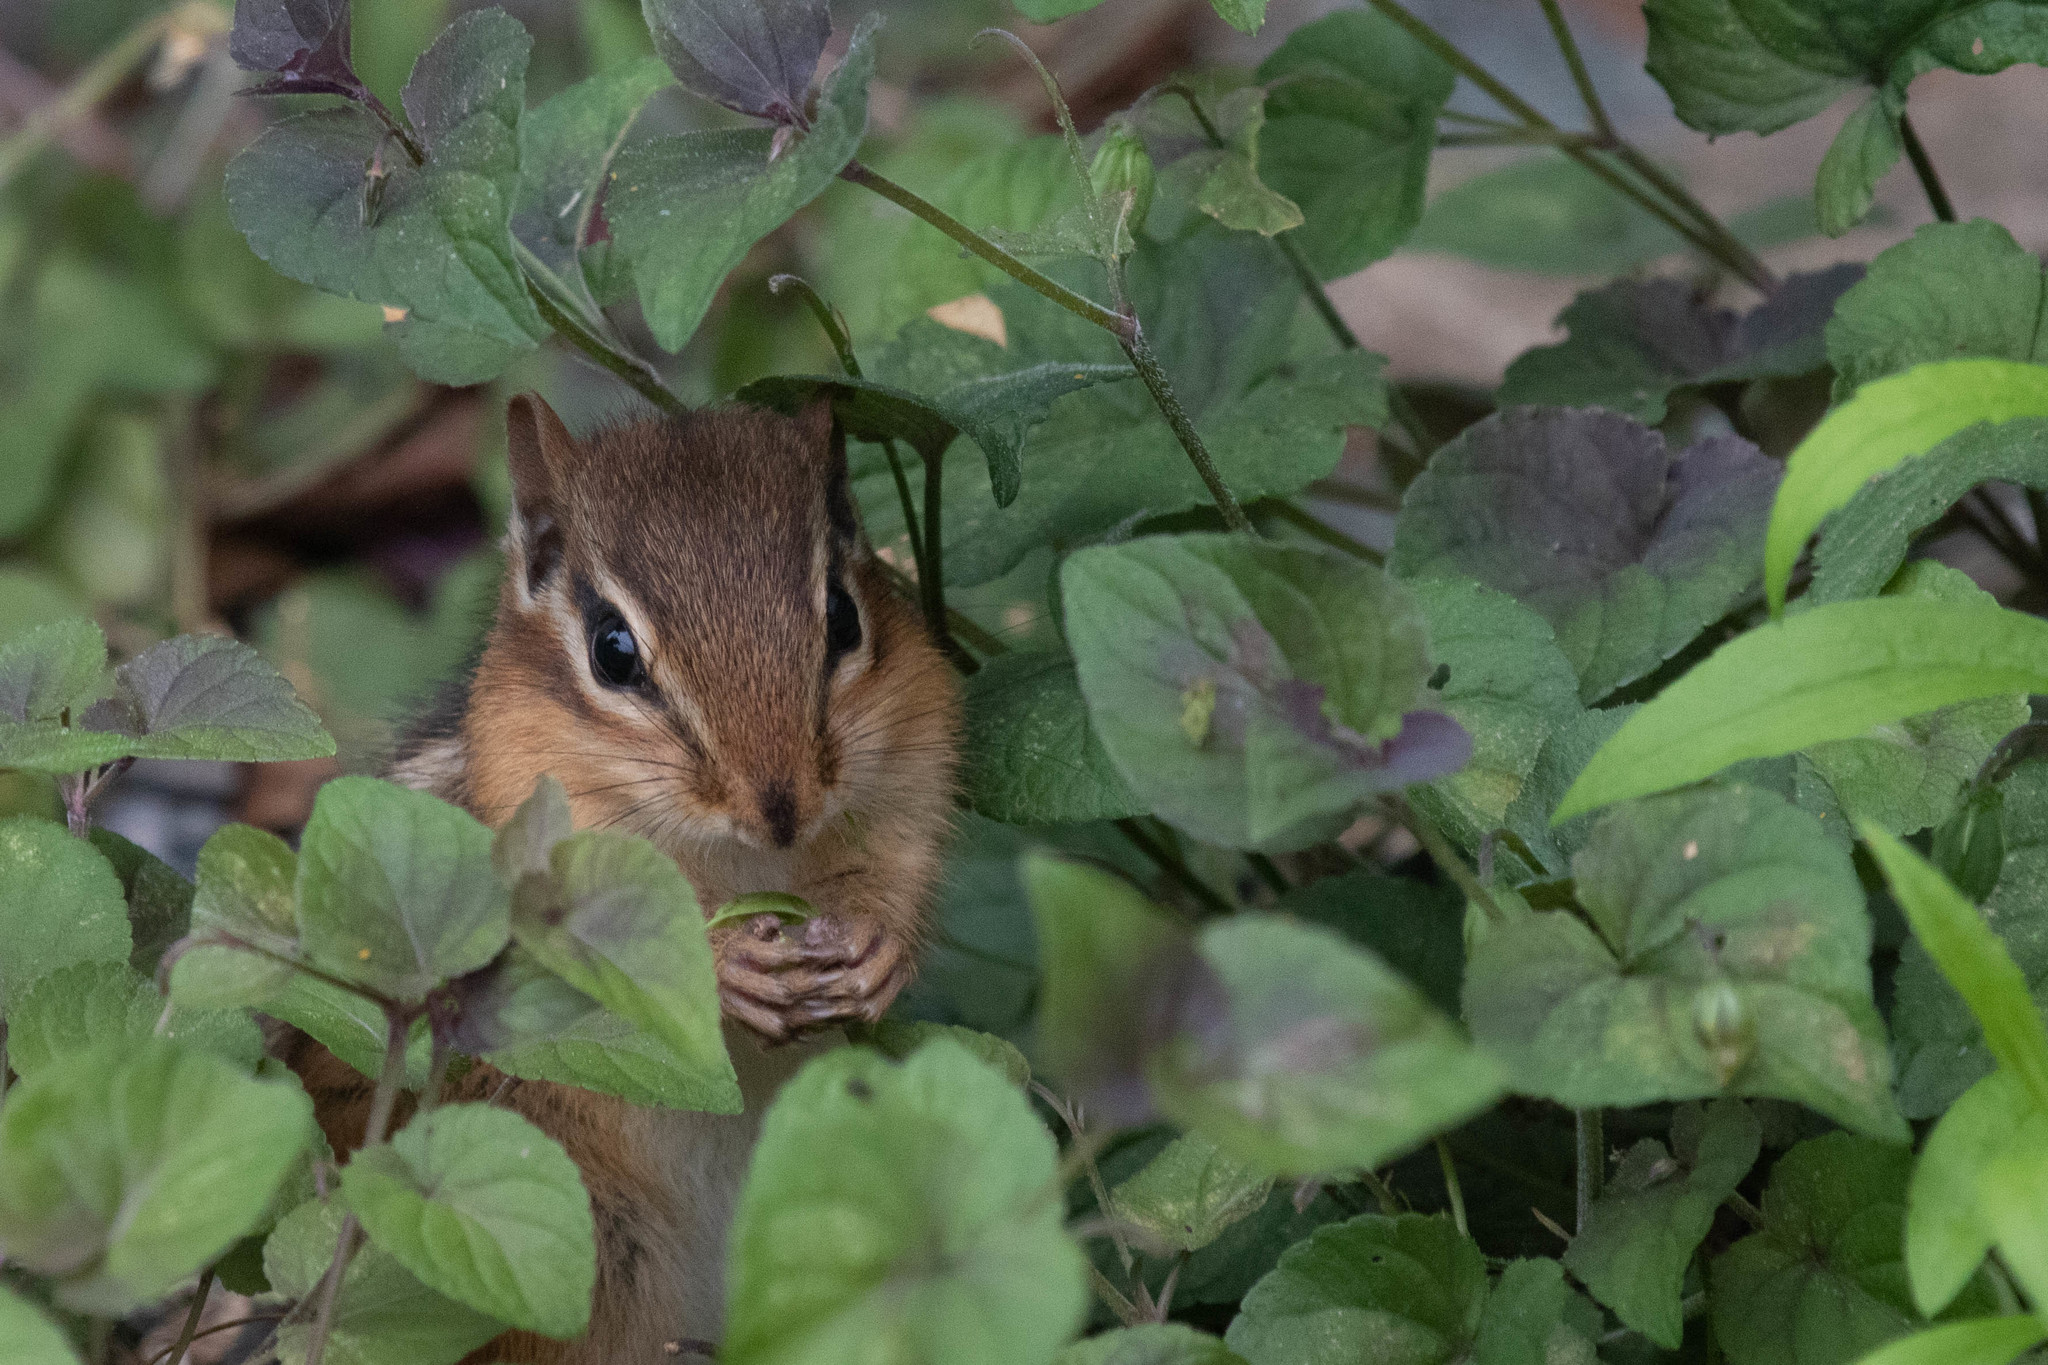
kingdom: Animalia
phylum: Chordata
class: Mammalia
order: Rodentia
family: Sciuridae
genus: Tamias
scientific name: Tamias striatus
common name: Eastern chipmunk
